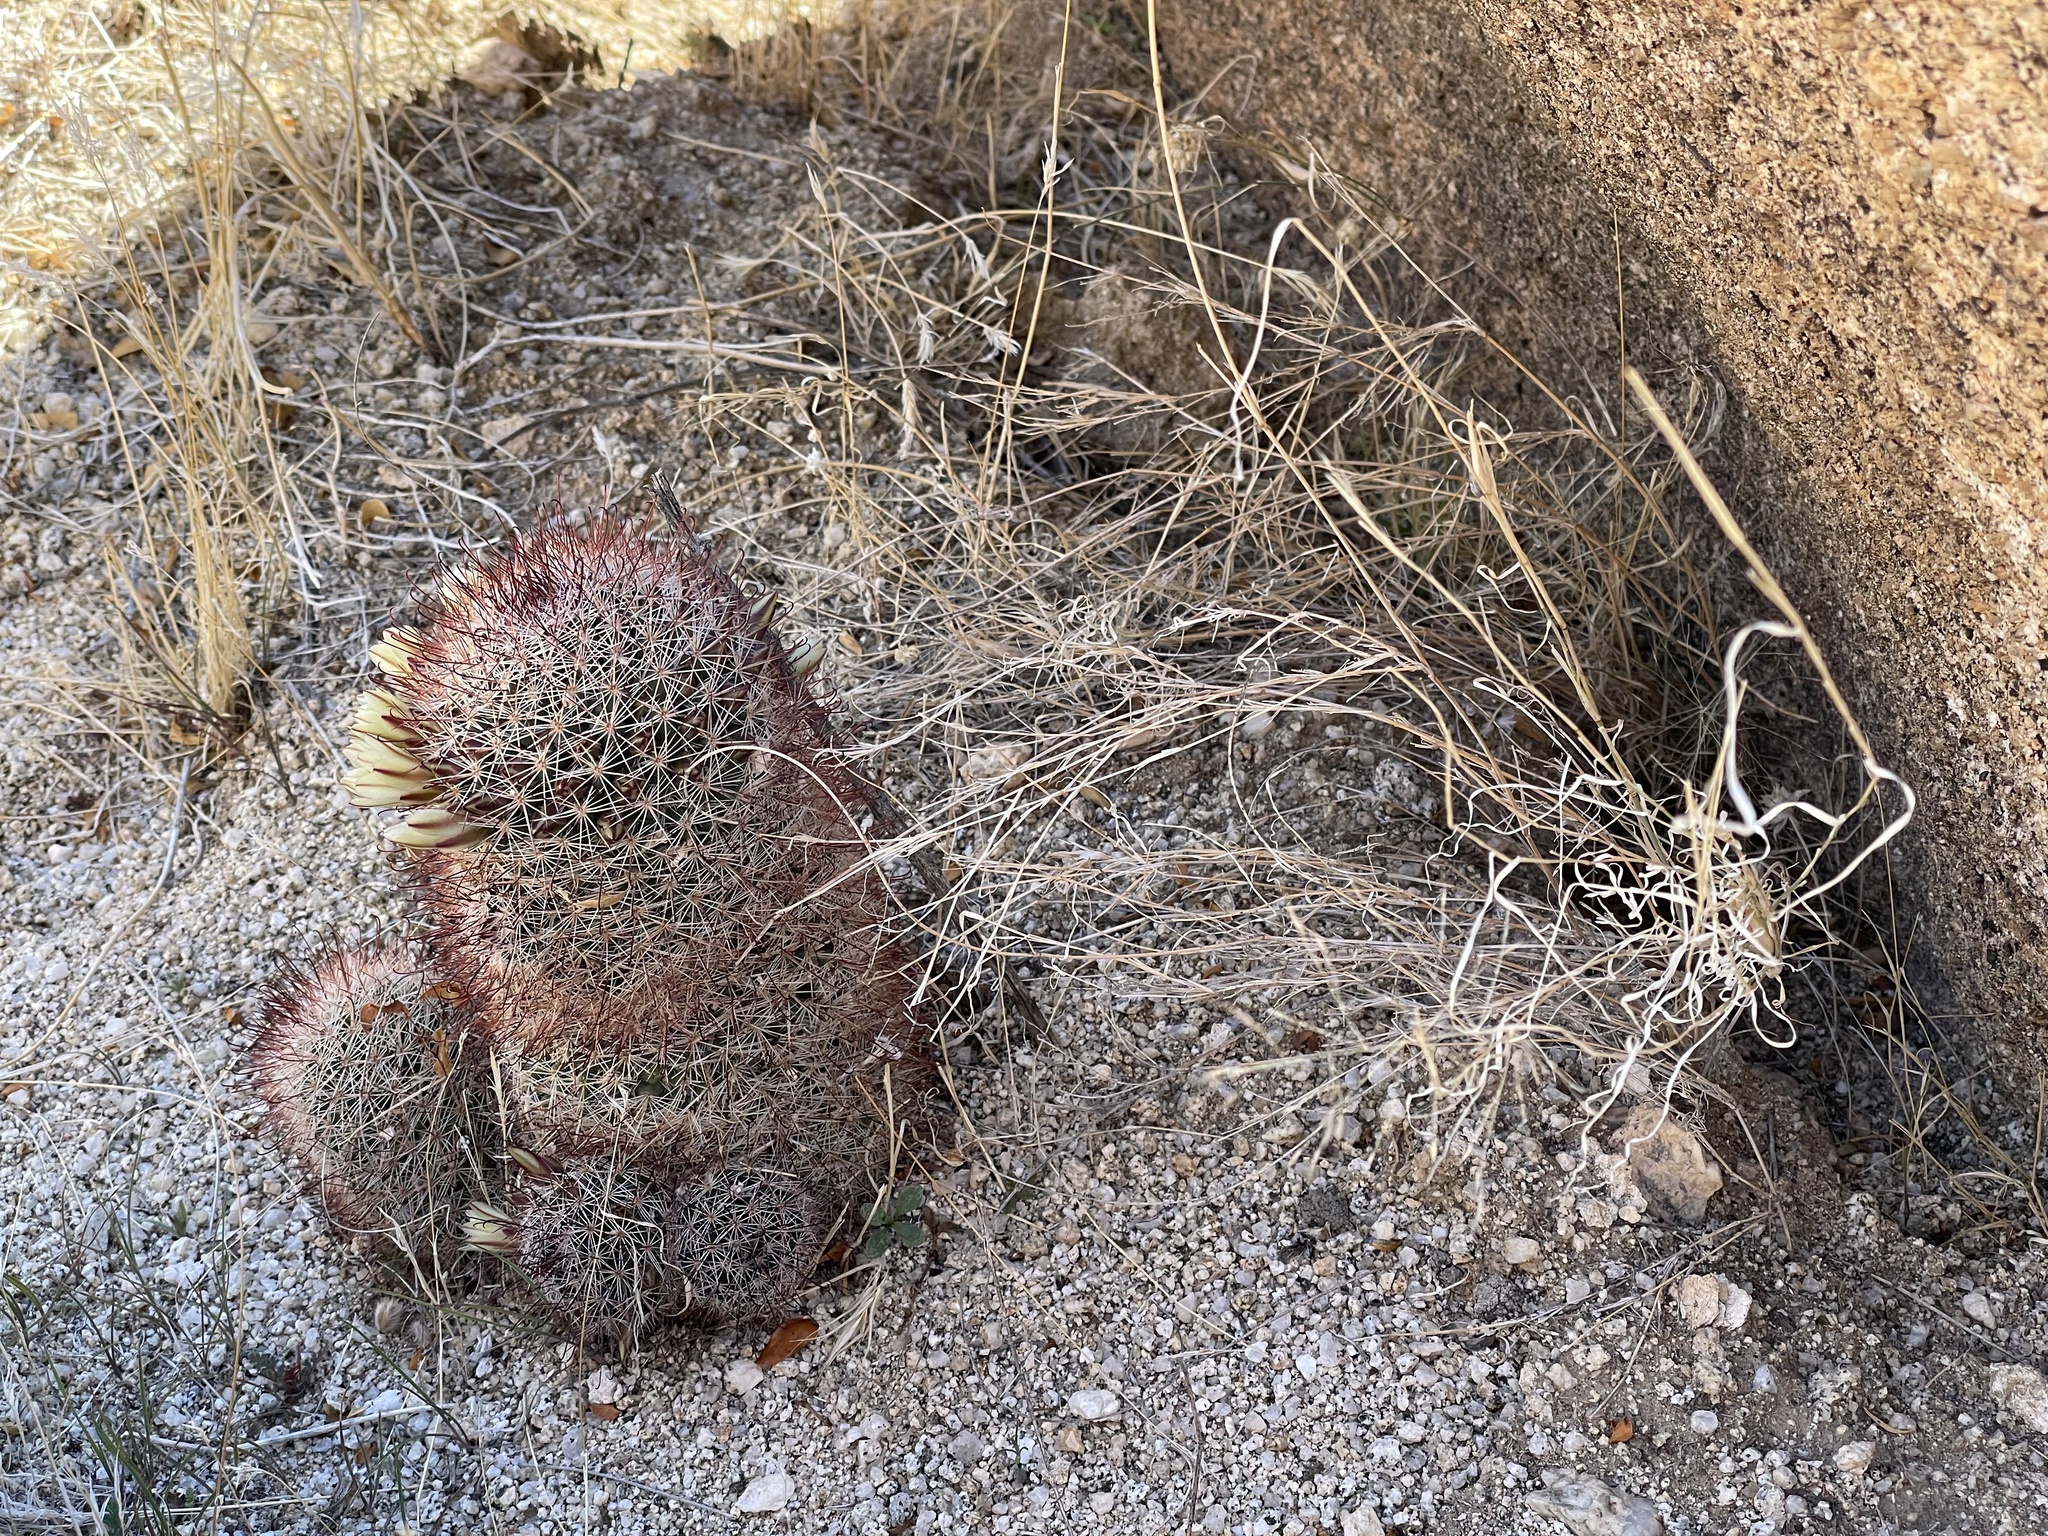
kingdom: Plantae
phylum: Tracheophyta
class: Magnoliopsida
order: Caryophyllales
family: Cactaceae
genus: Cochemiea
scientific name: Cochemiea dioica
